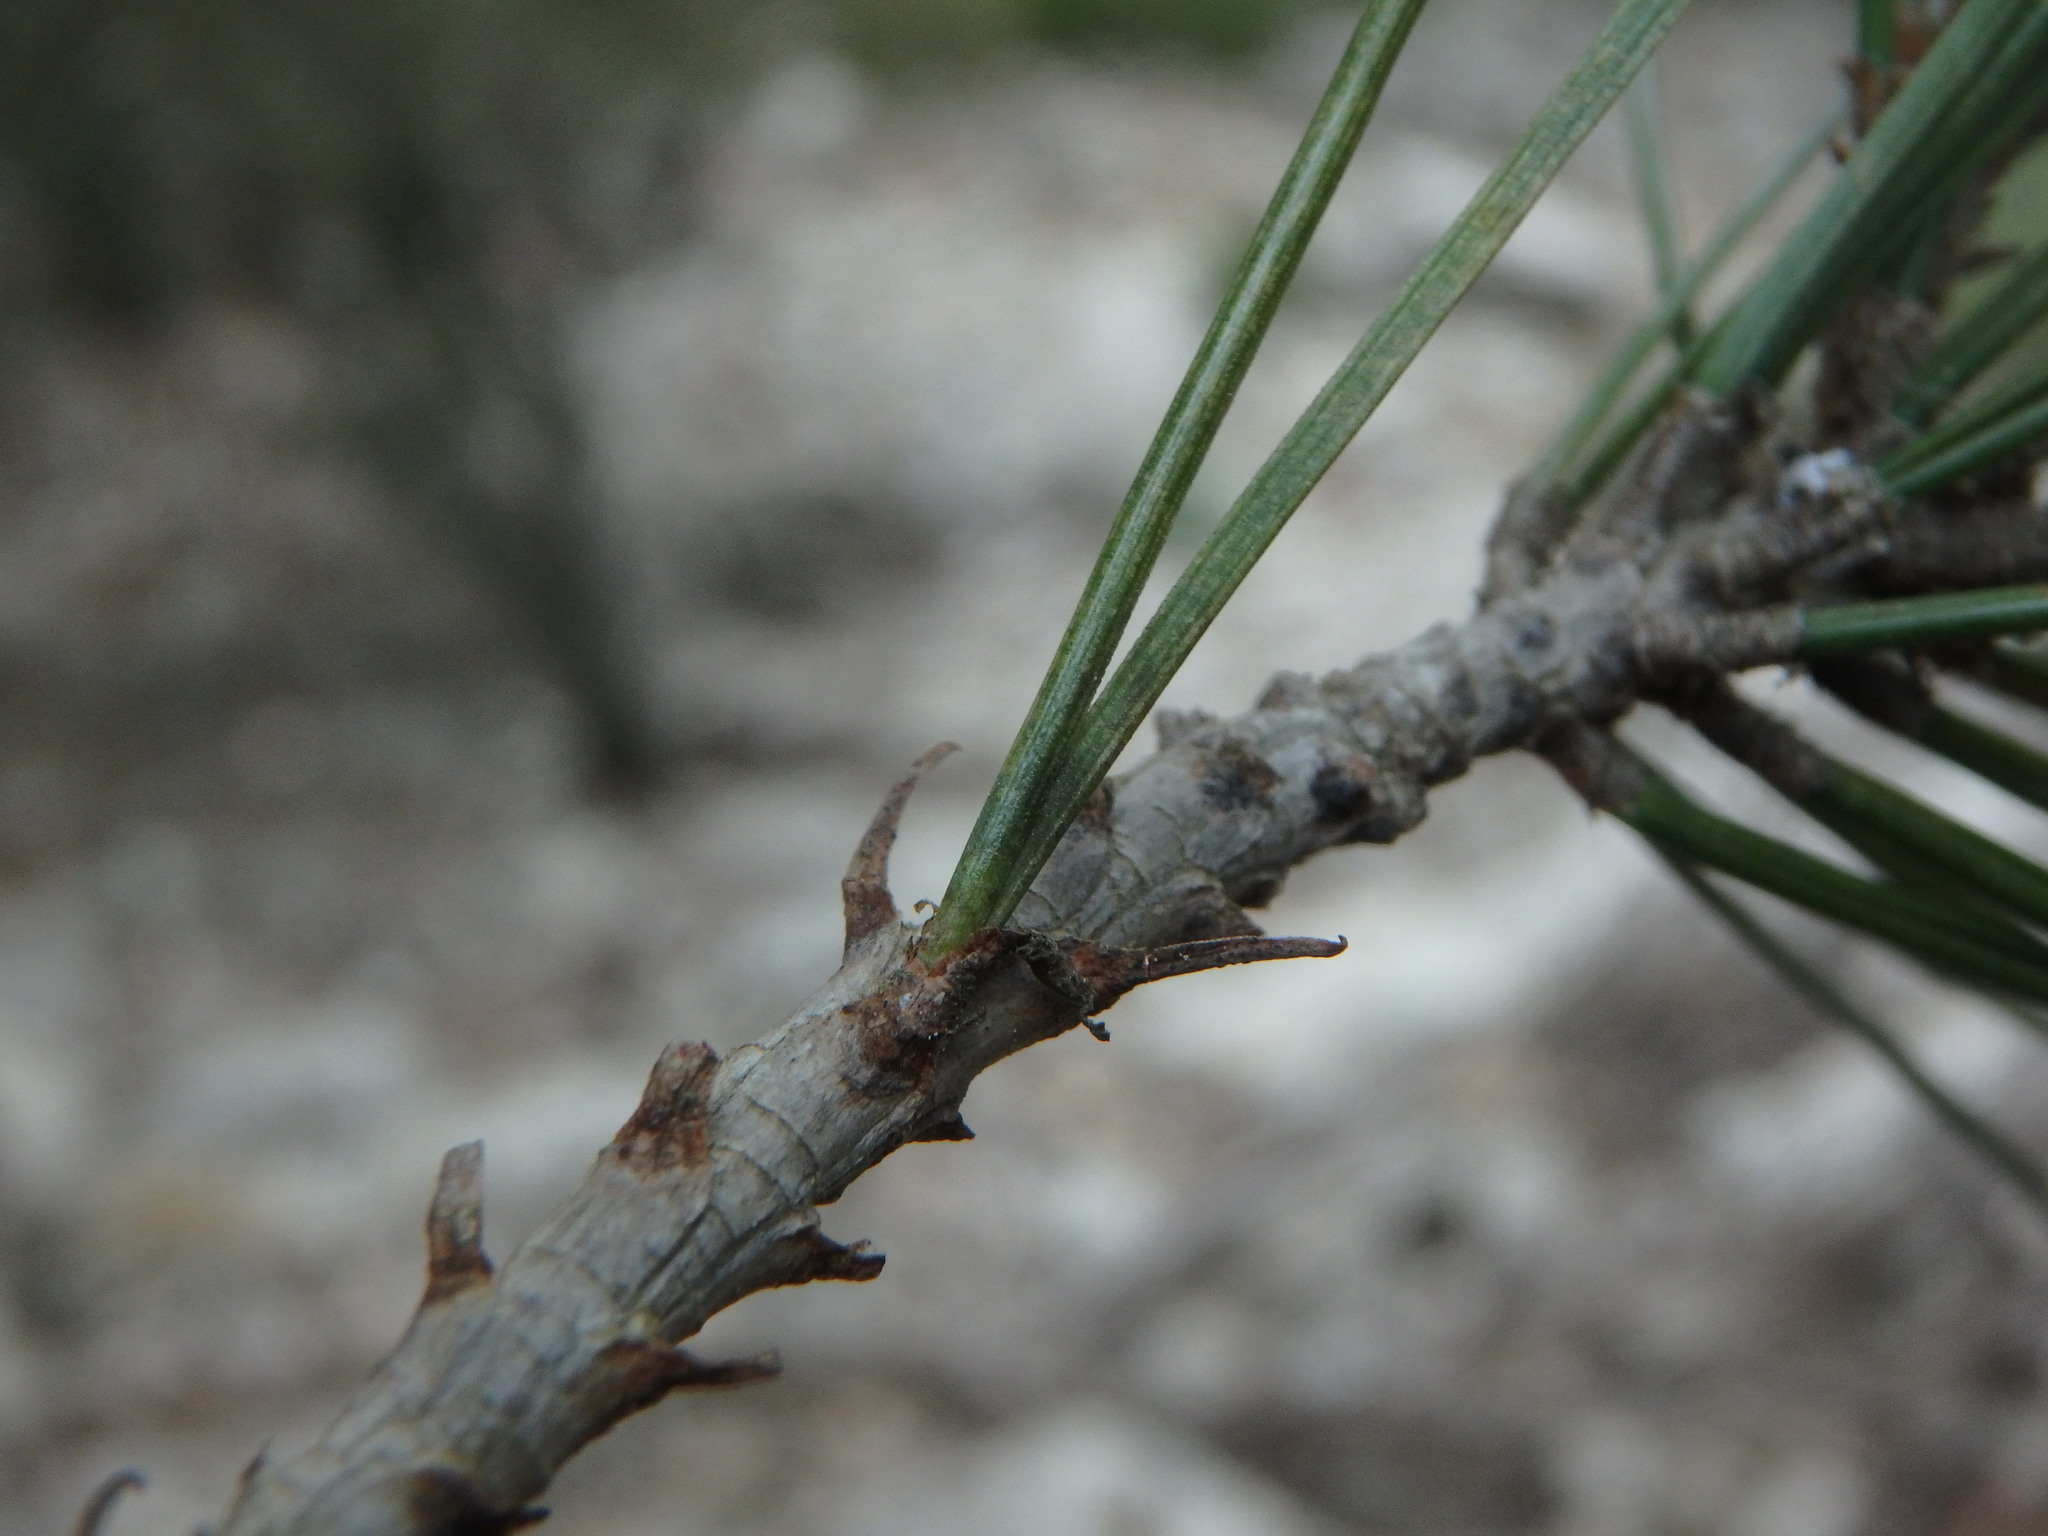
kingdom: Plantae
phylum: Tracheophyta
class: Pinopsida
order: Pinales
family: Pinaceae
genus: Pinus
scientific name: Pinus halepensis
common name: Aleppo pine
